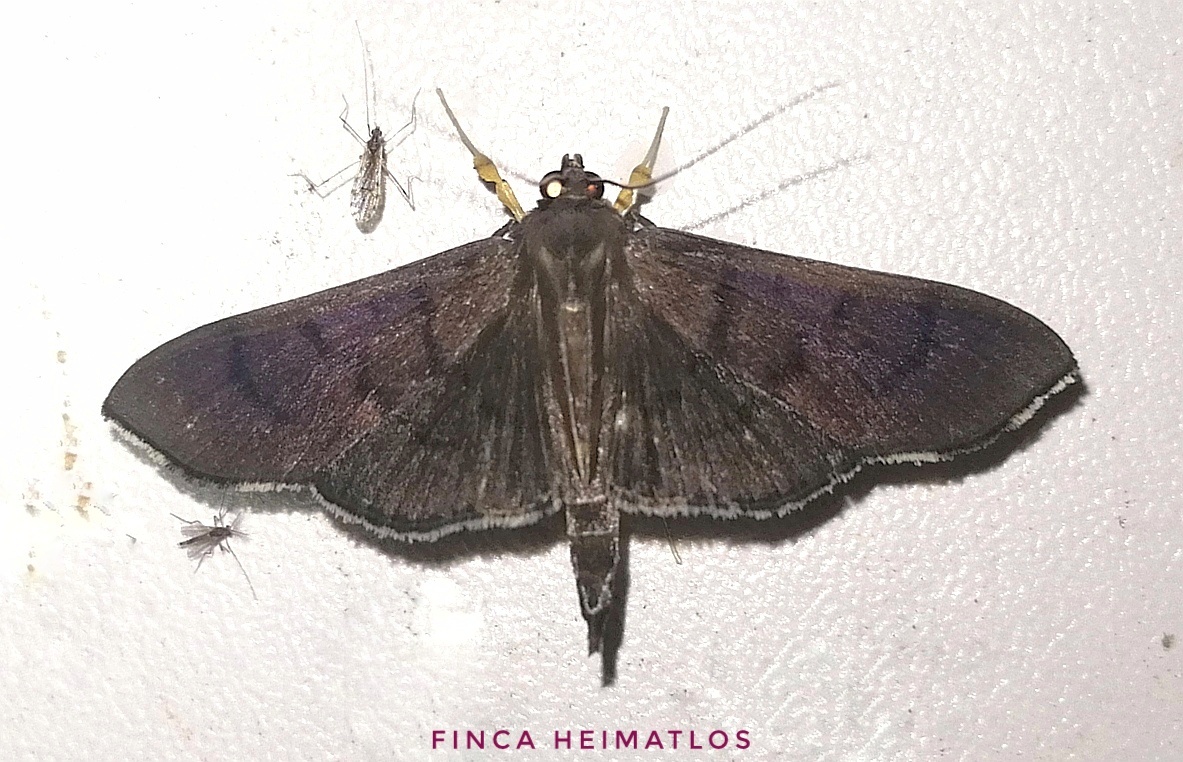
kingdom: Animalia
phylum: Arthropoda
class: Insecta
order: Lepidoptera
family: Crambidae
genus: Omiodes
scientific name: Omiodes humeralis
